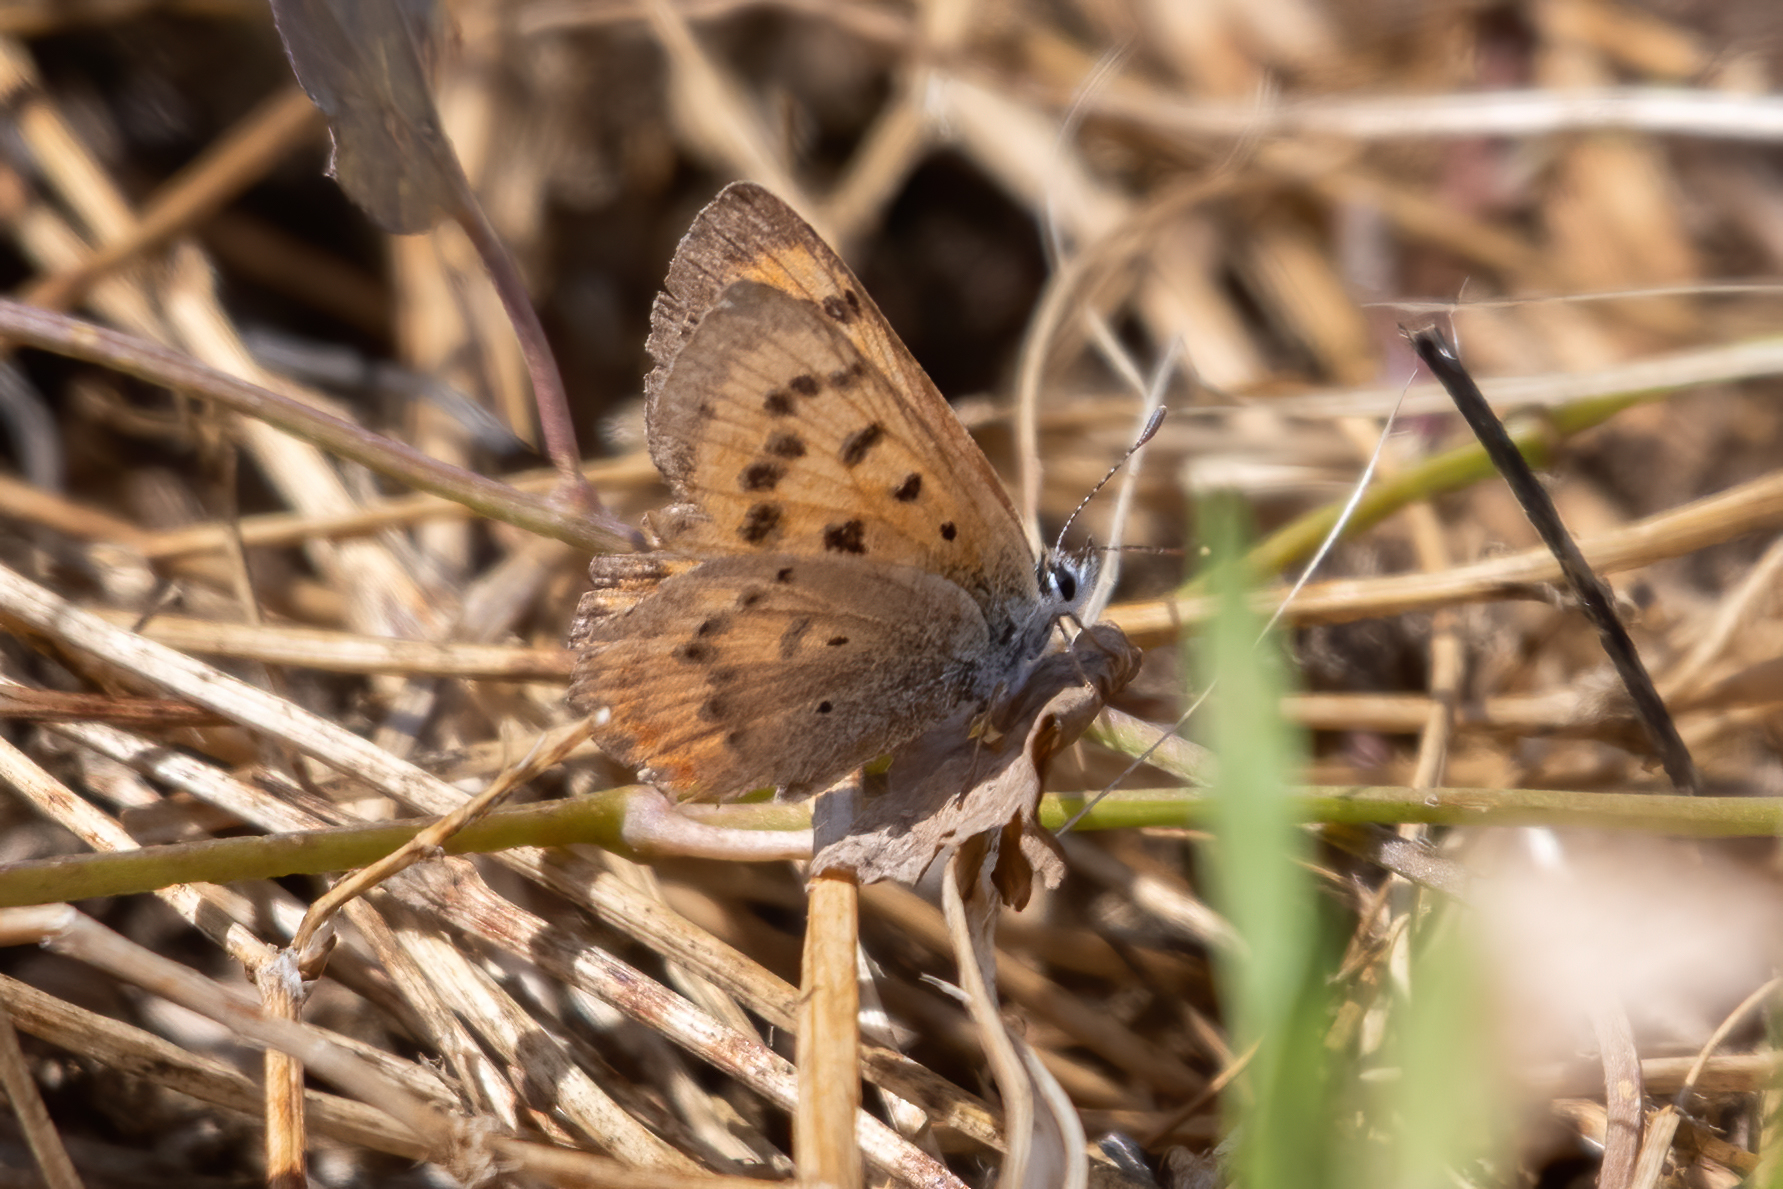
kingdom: Animalia
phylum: Arthropoda
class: Insecta
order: Lepidoptera
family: Lycaenidae
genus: Tharsalea
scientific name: Tharsalea helloides
